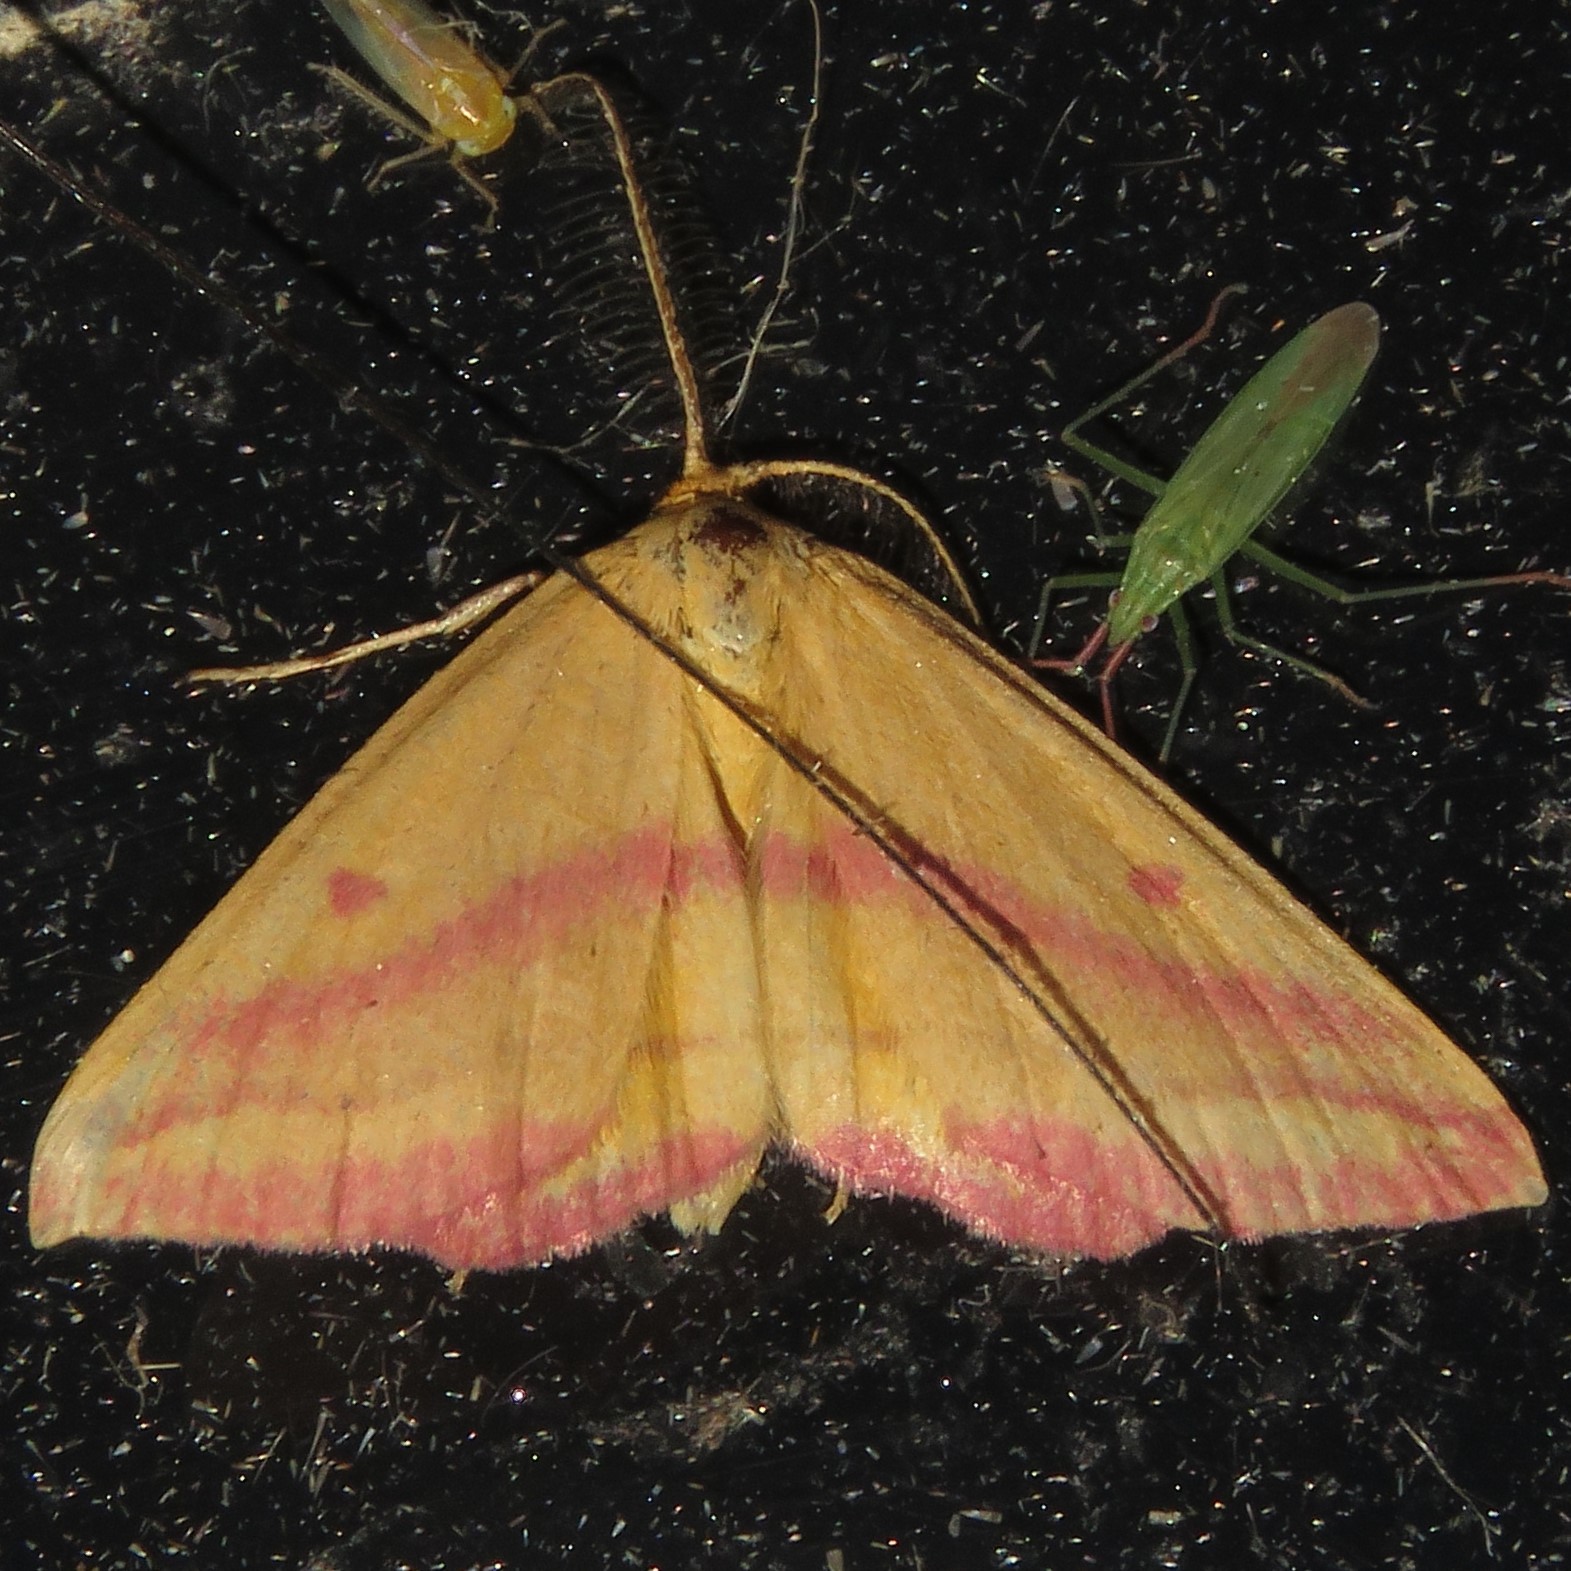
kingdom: Animalia
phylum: Arthropoda
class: Insecta
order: Lepidoptera
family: Geometridae
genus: Haematopis
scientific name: Haematopis grataria
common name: Chickweed geometer
